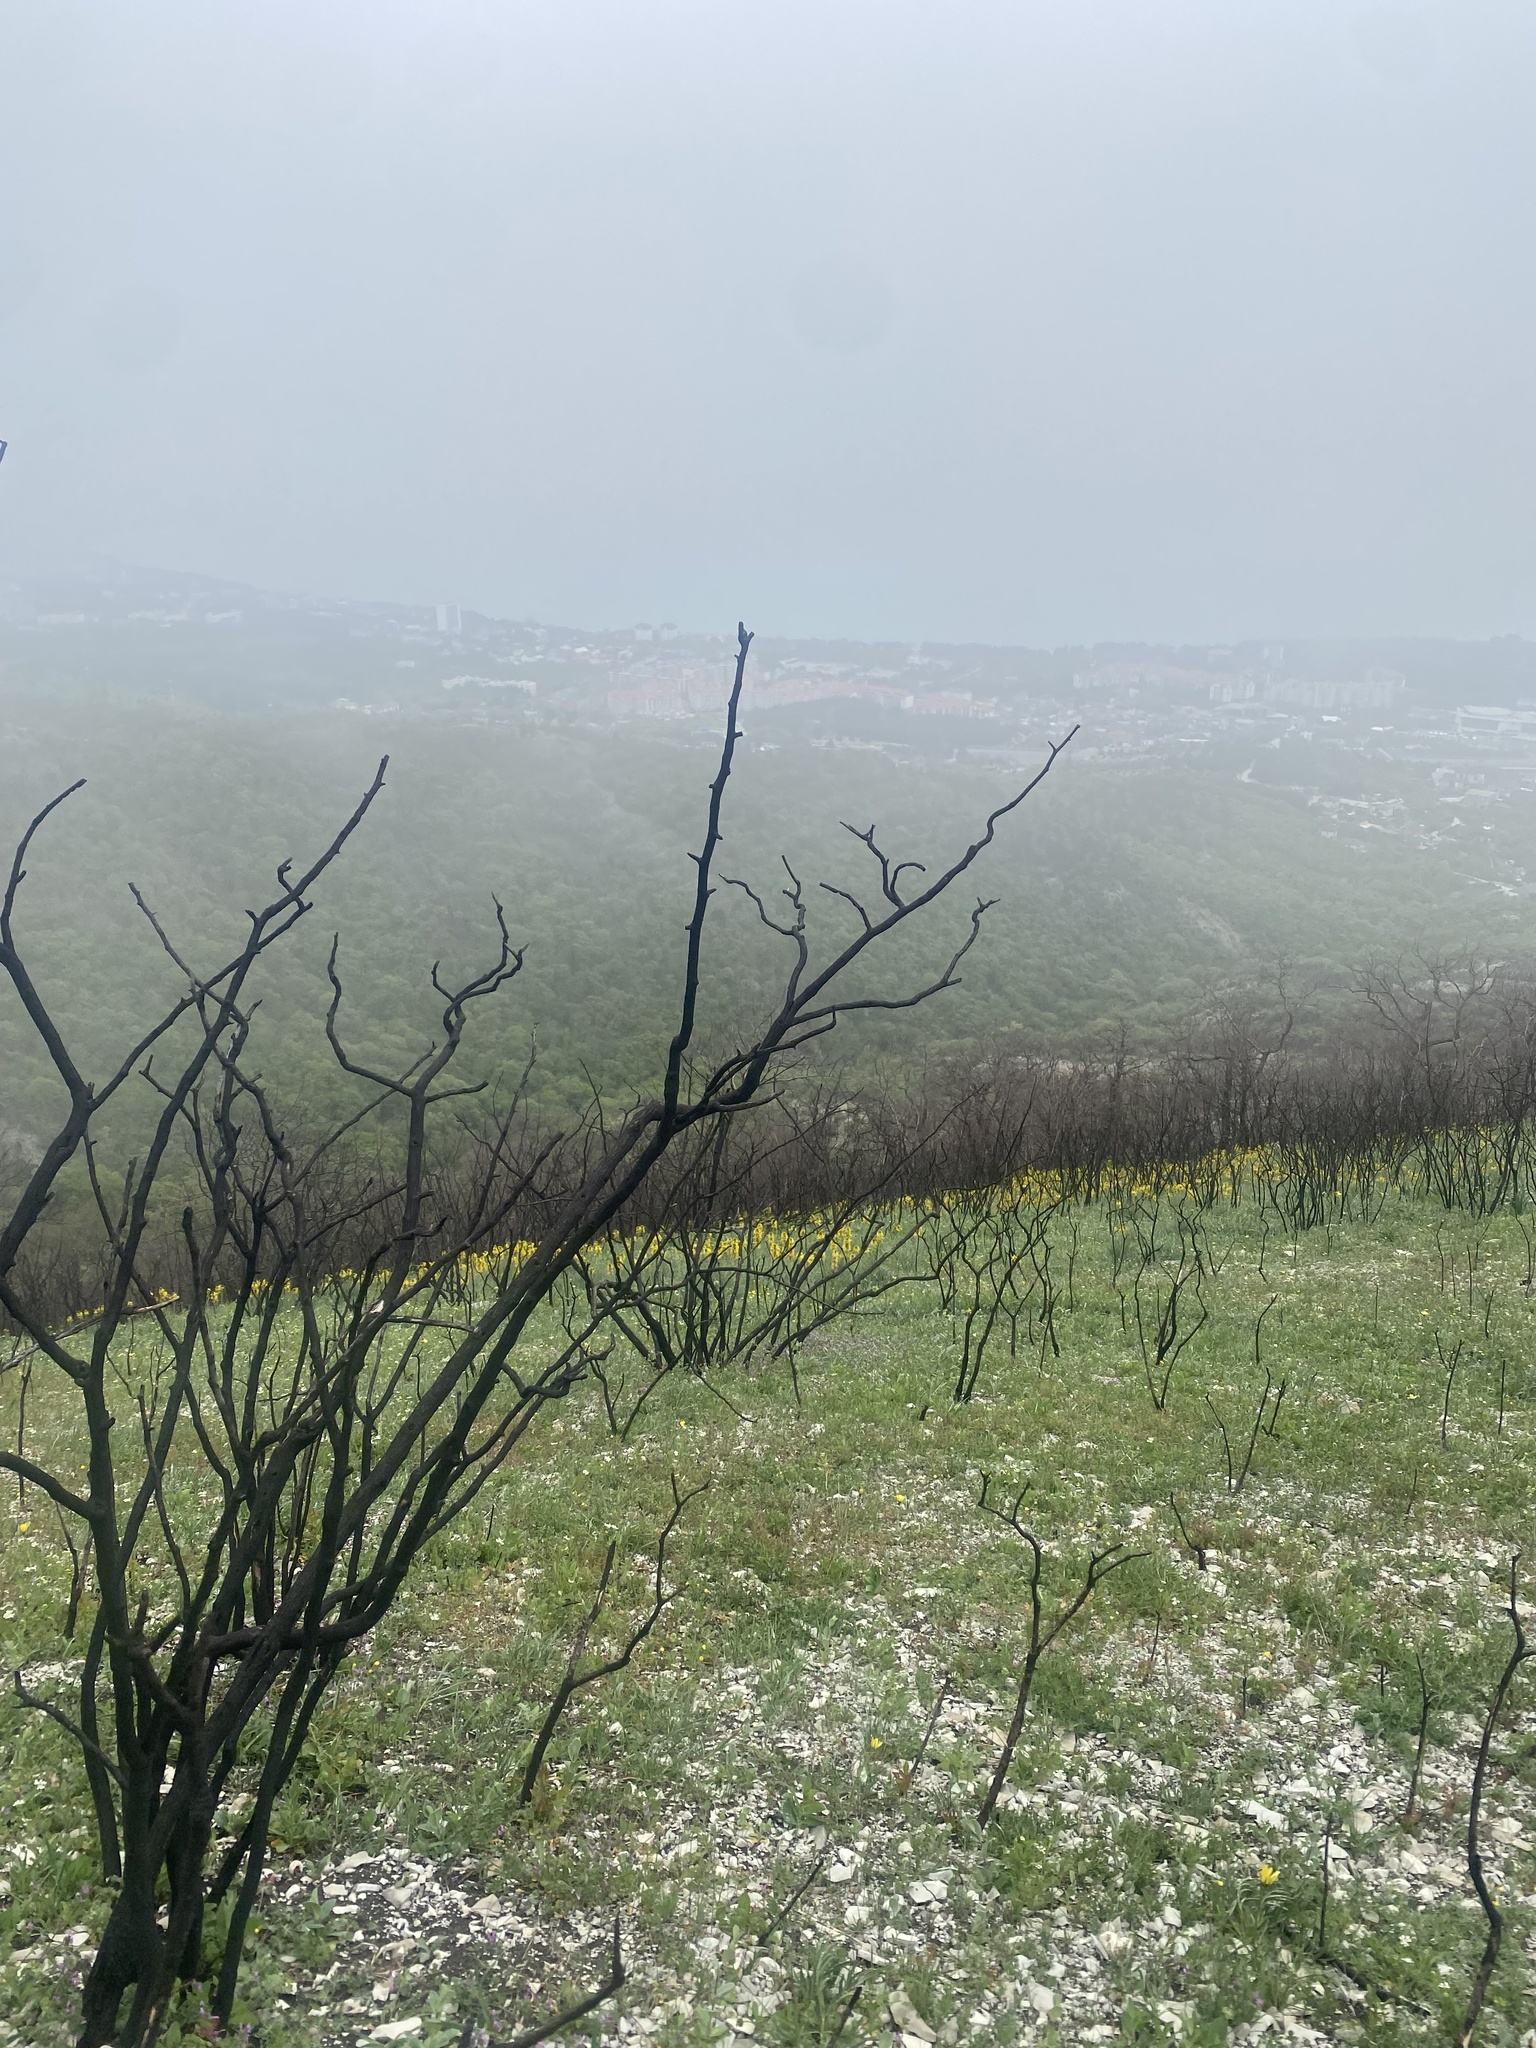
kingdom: Plantae
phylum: Tracheophyta
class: Liliopsida
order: Asparagales
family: Asphodelaceae
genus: Asphodeline
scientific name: Asphodeline lutea
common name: Yellow asphodel
